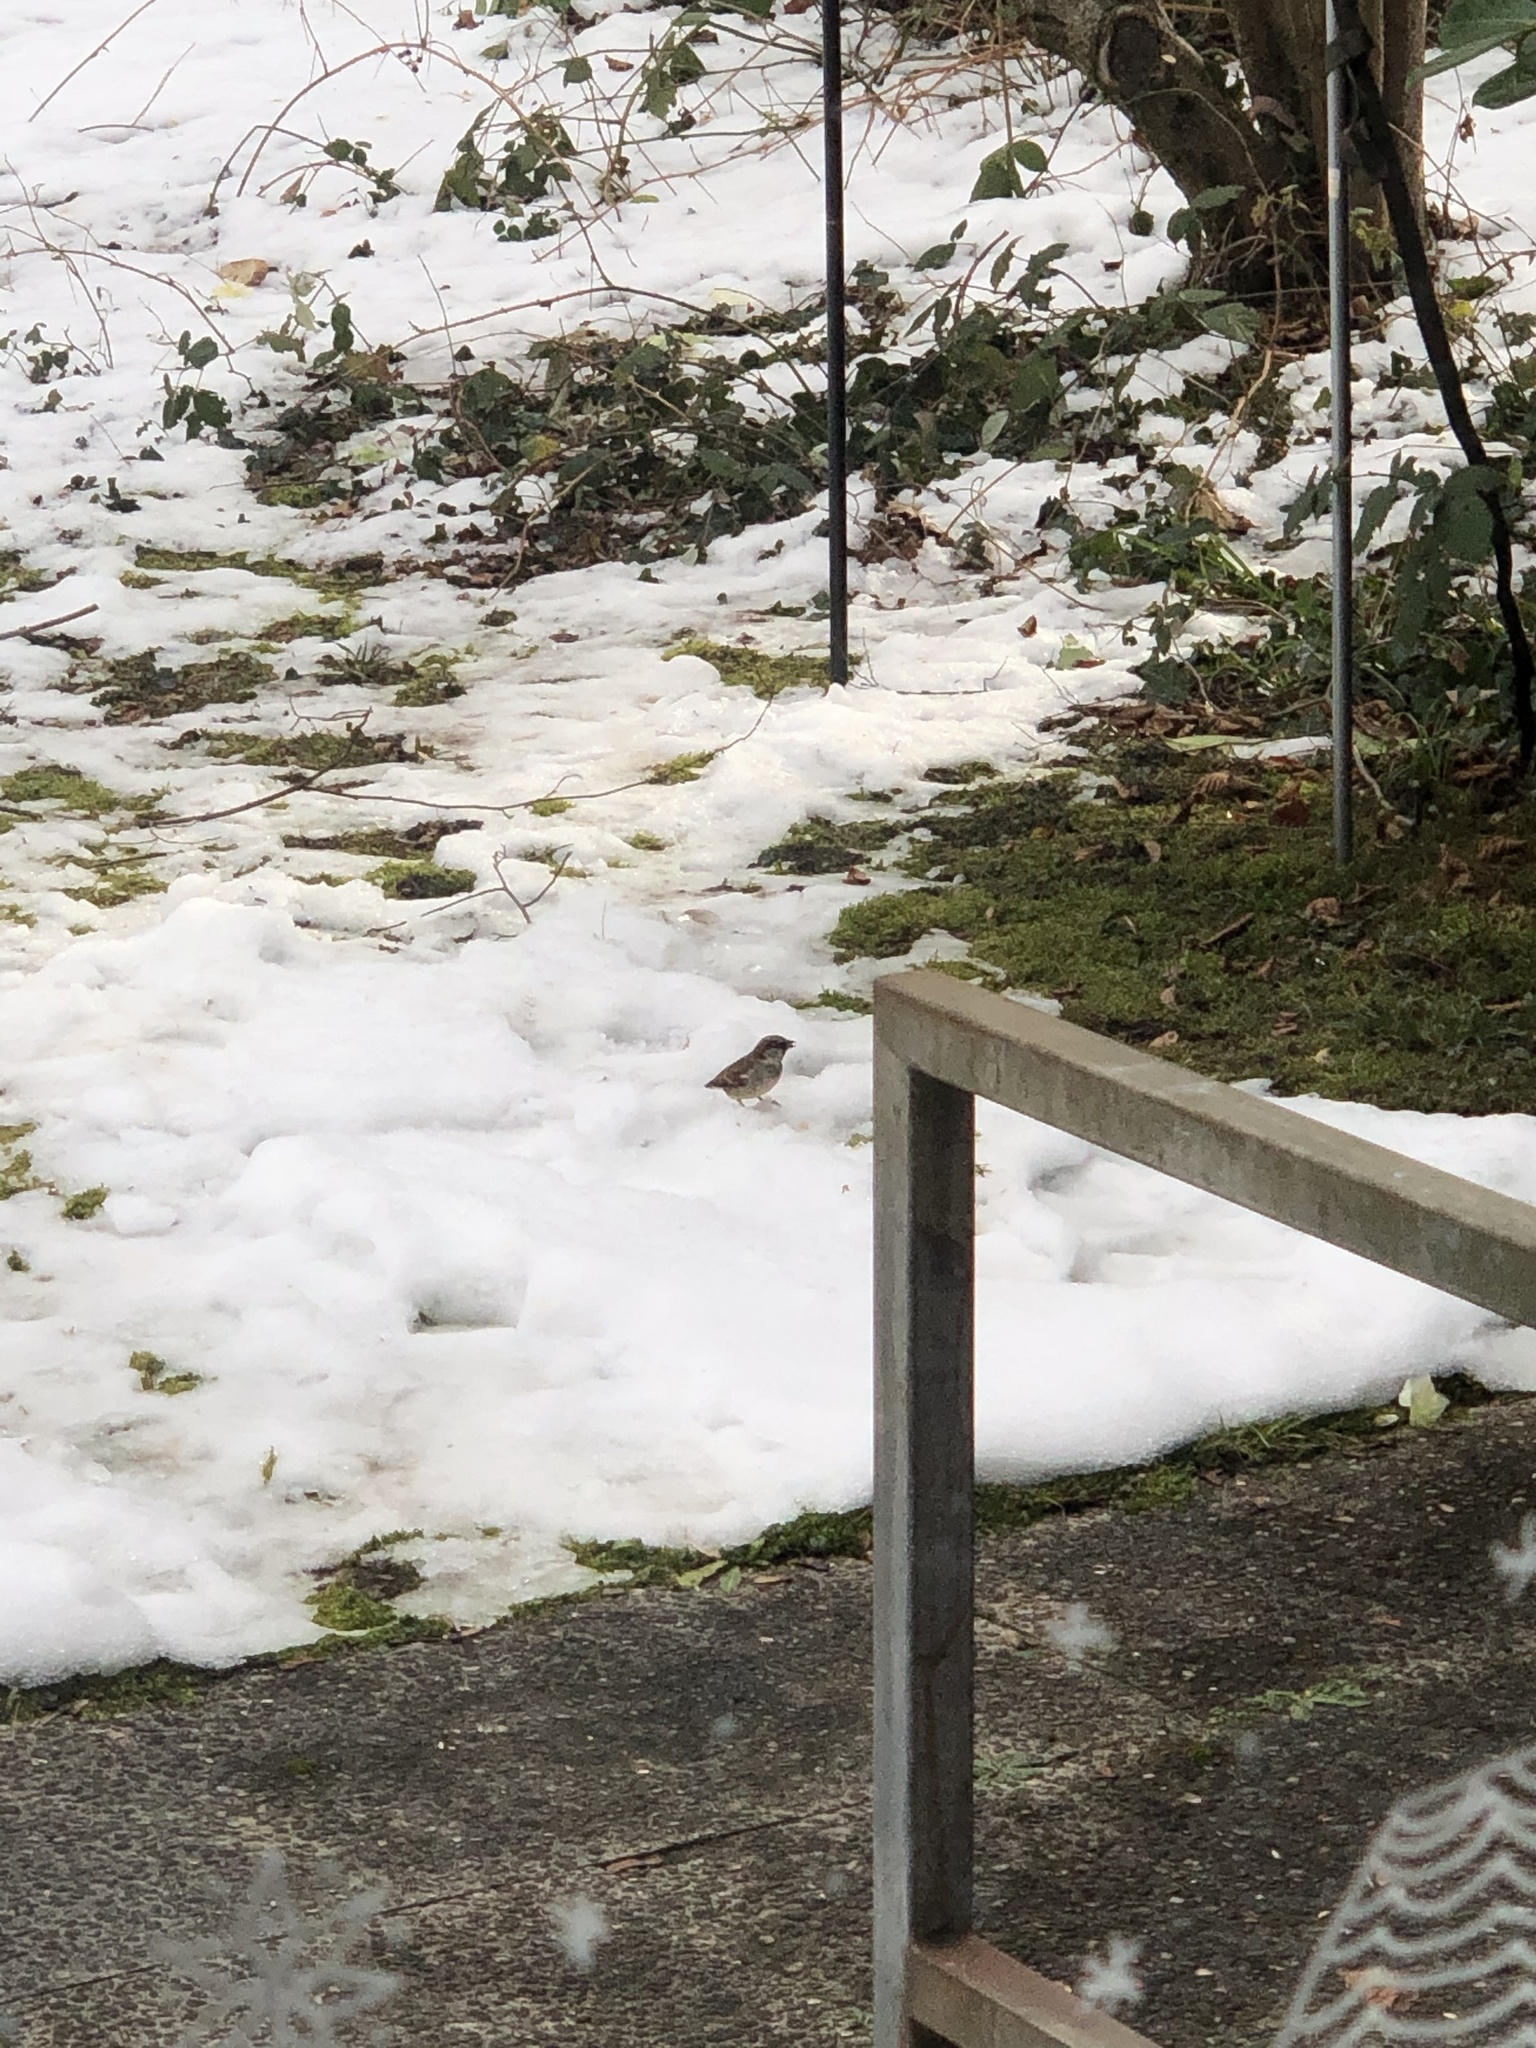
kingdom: Animalia
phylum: Chordata
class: Aves
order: Passeriformes
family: Passeridae
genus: Passer
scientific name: Passer domesticus
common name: House sparrow
